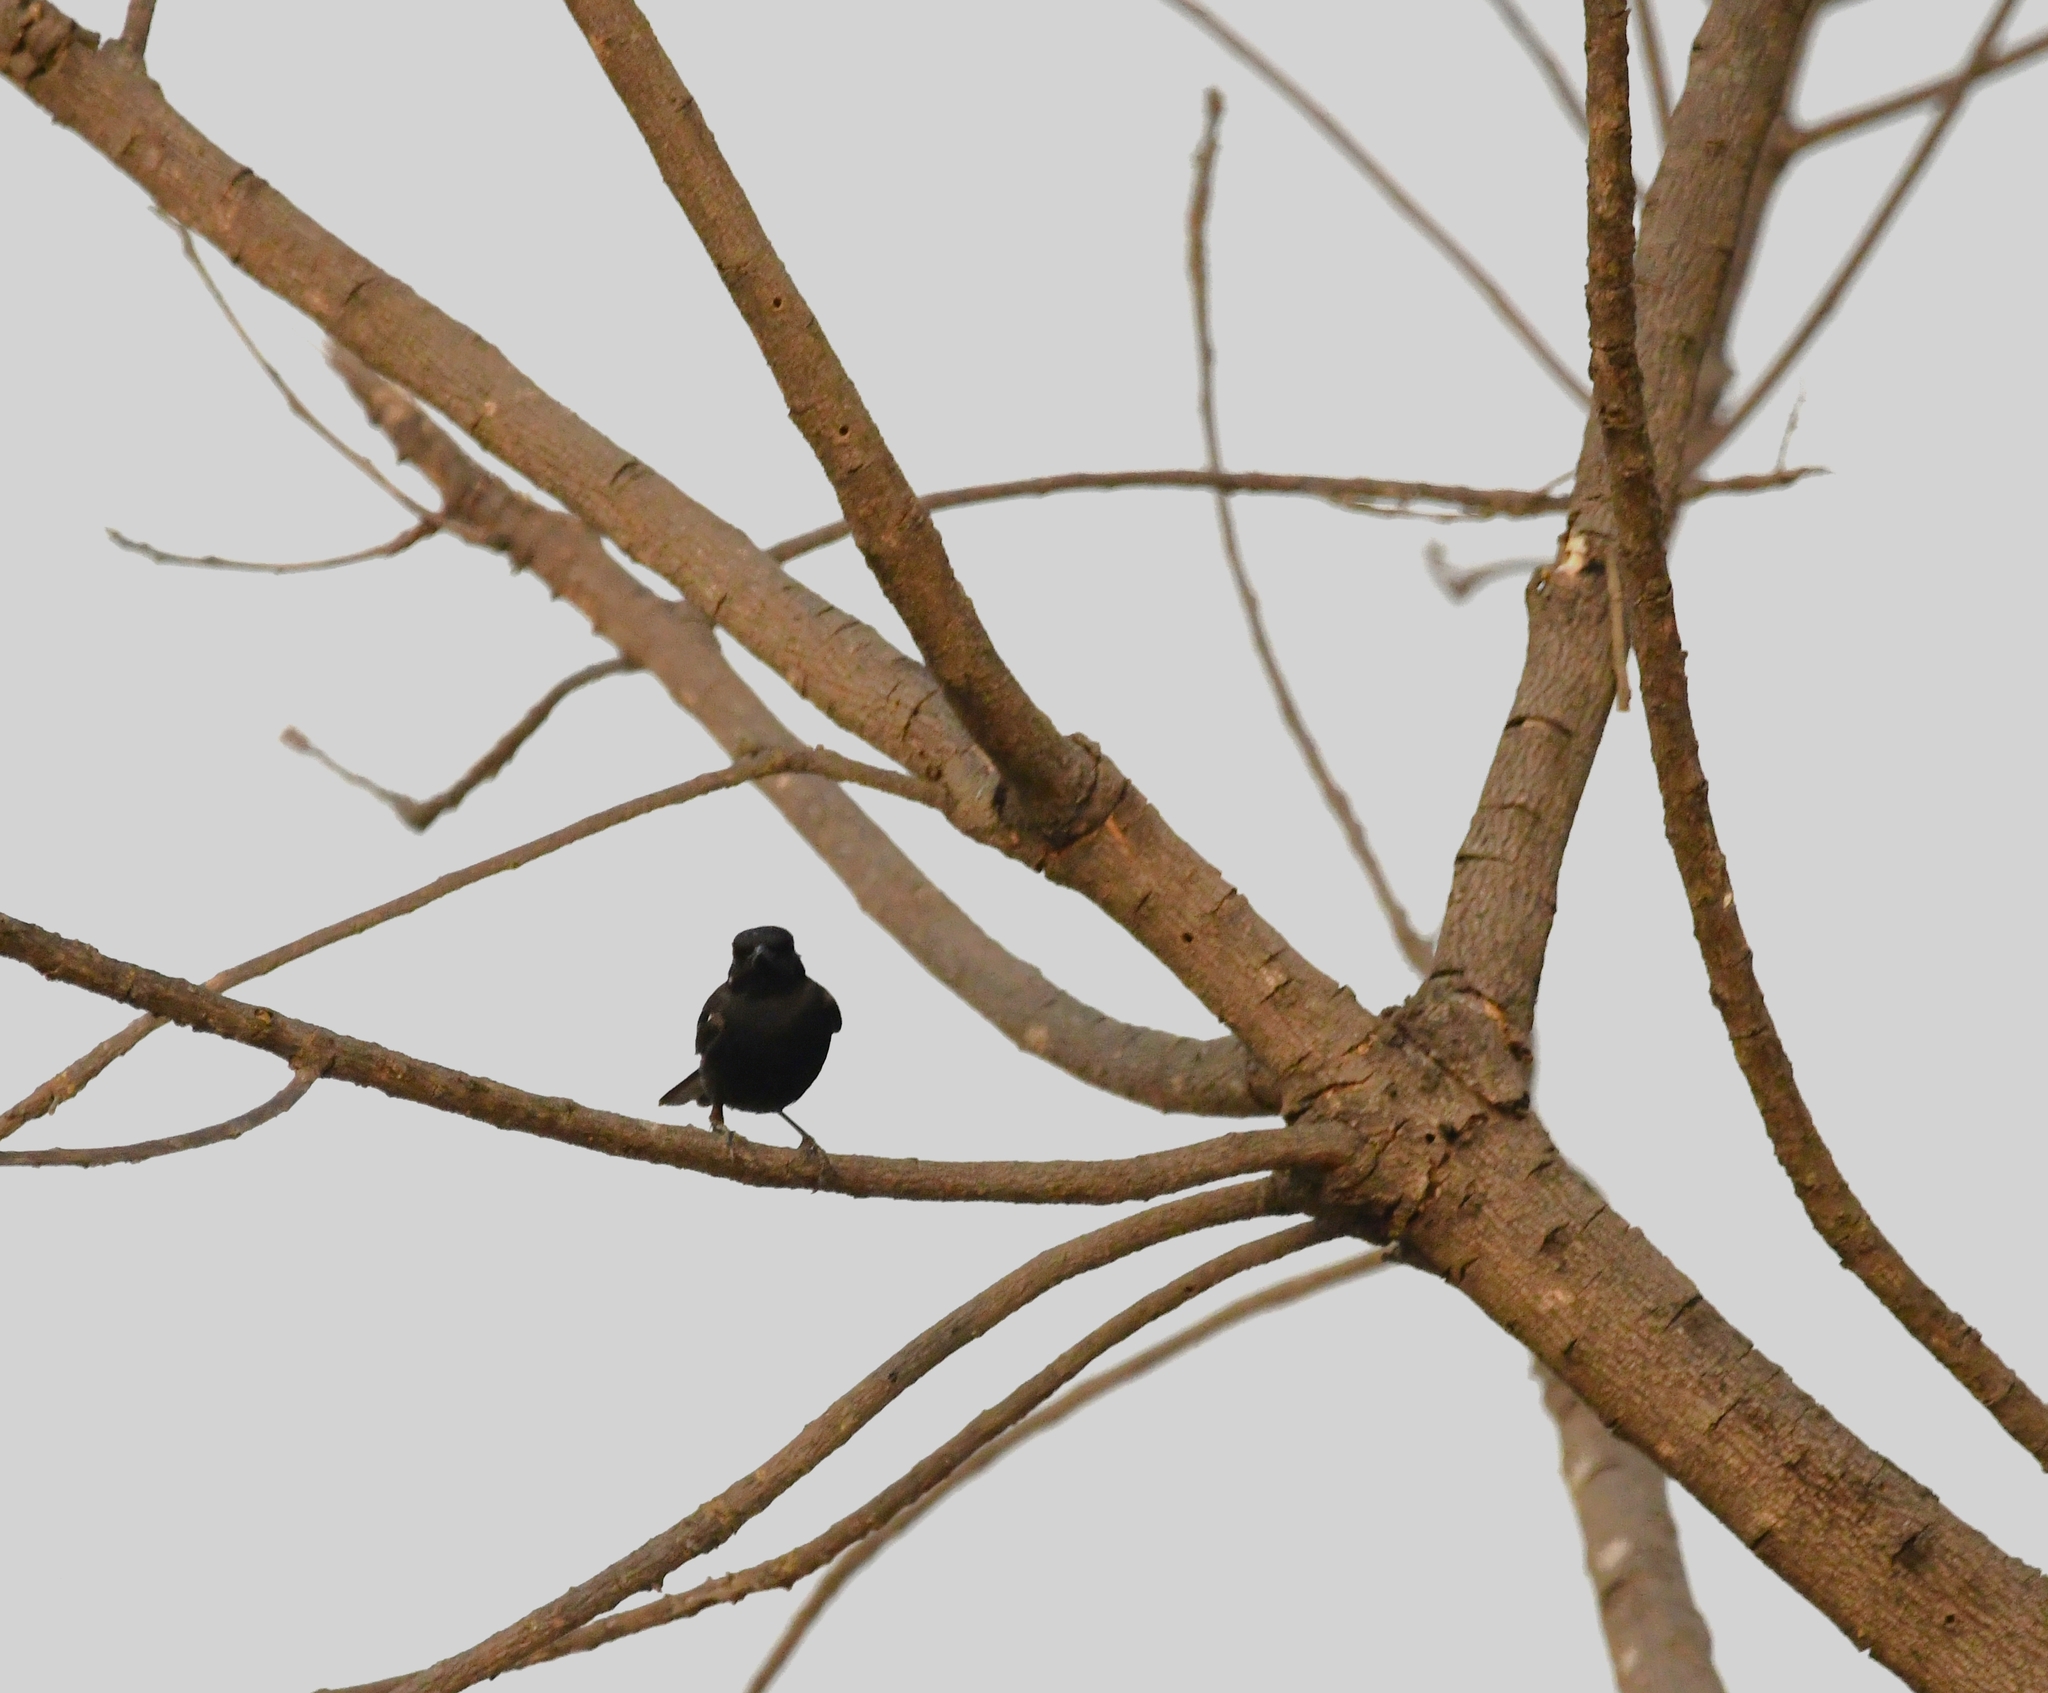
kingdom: Animalia
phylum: Chordata
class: Aves
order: Passeriformes
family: Muscicapidae
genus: Saxicola
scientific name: Saxicola caprata
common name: Pied bush chat
